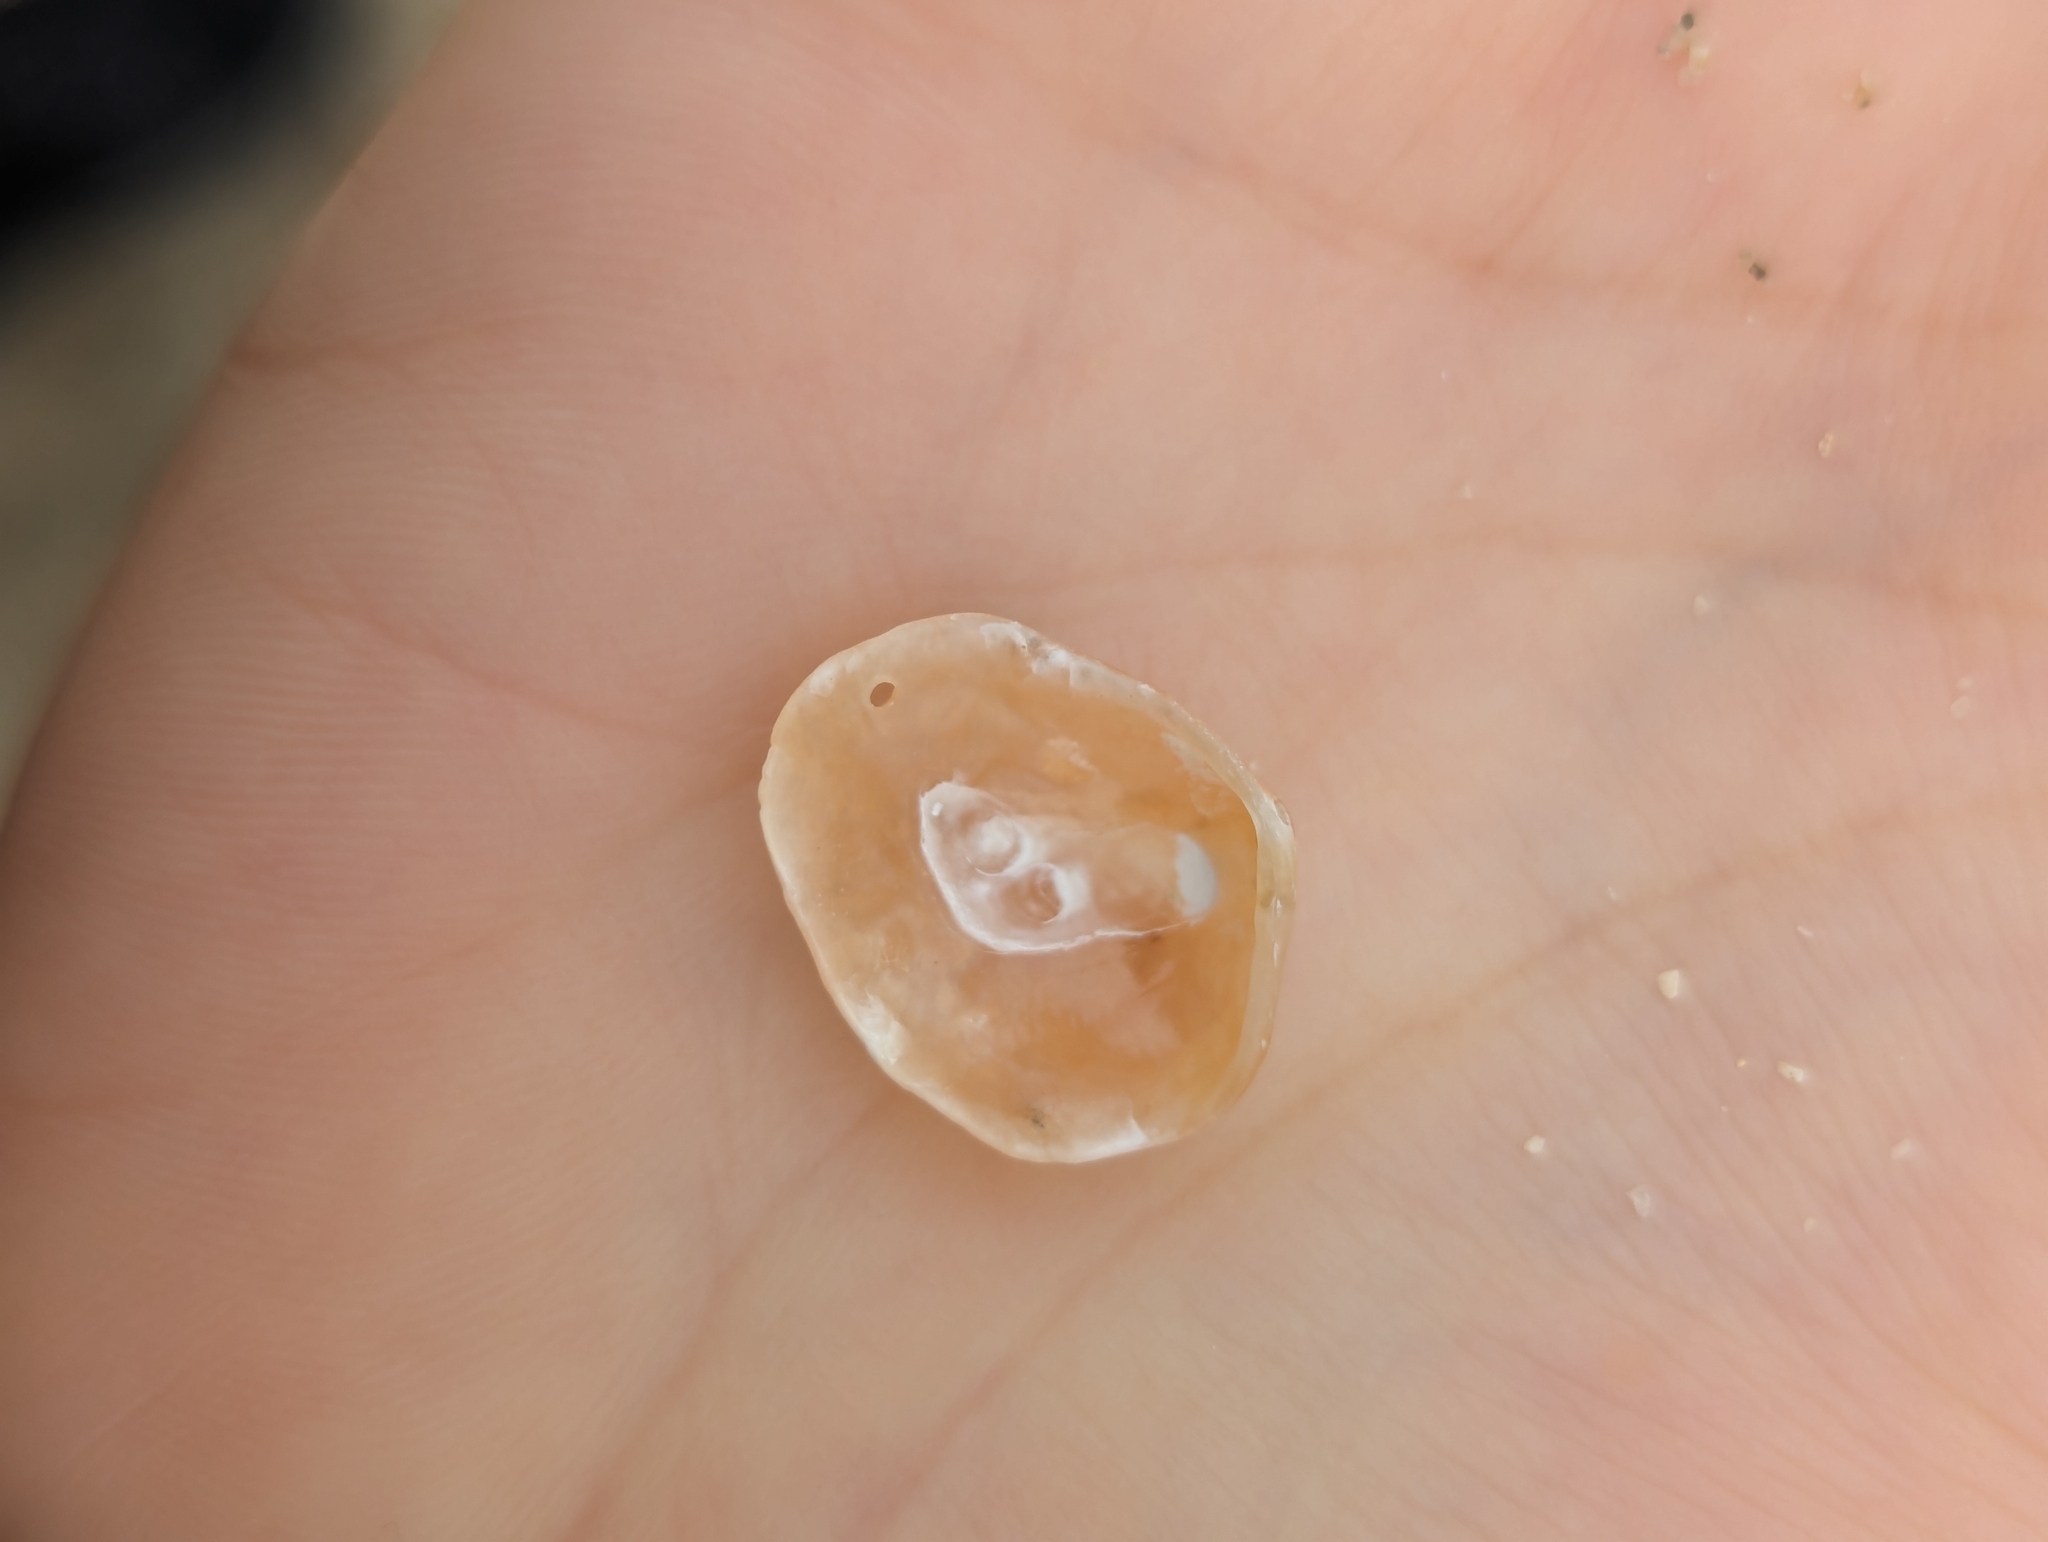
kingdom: Animalia
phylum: Mollusca
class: Bivalvia
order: Pectinida
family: Anomiidae
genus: Anomia
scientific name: Anomia chinensis
